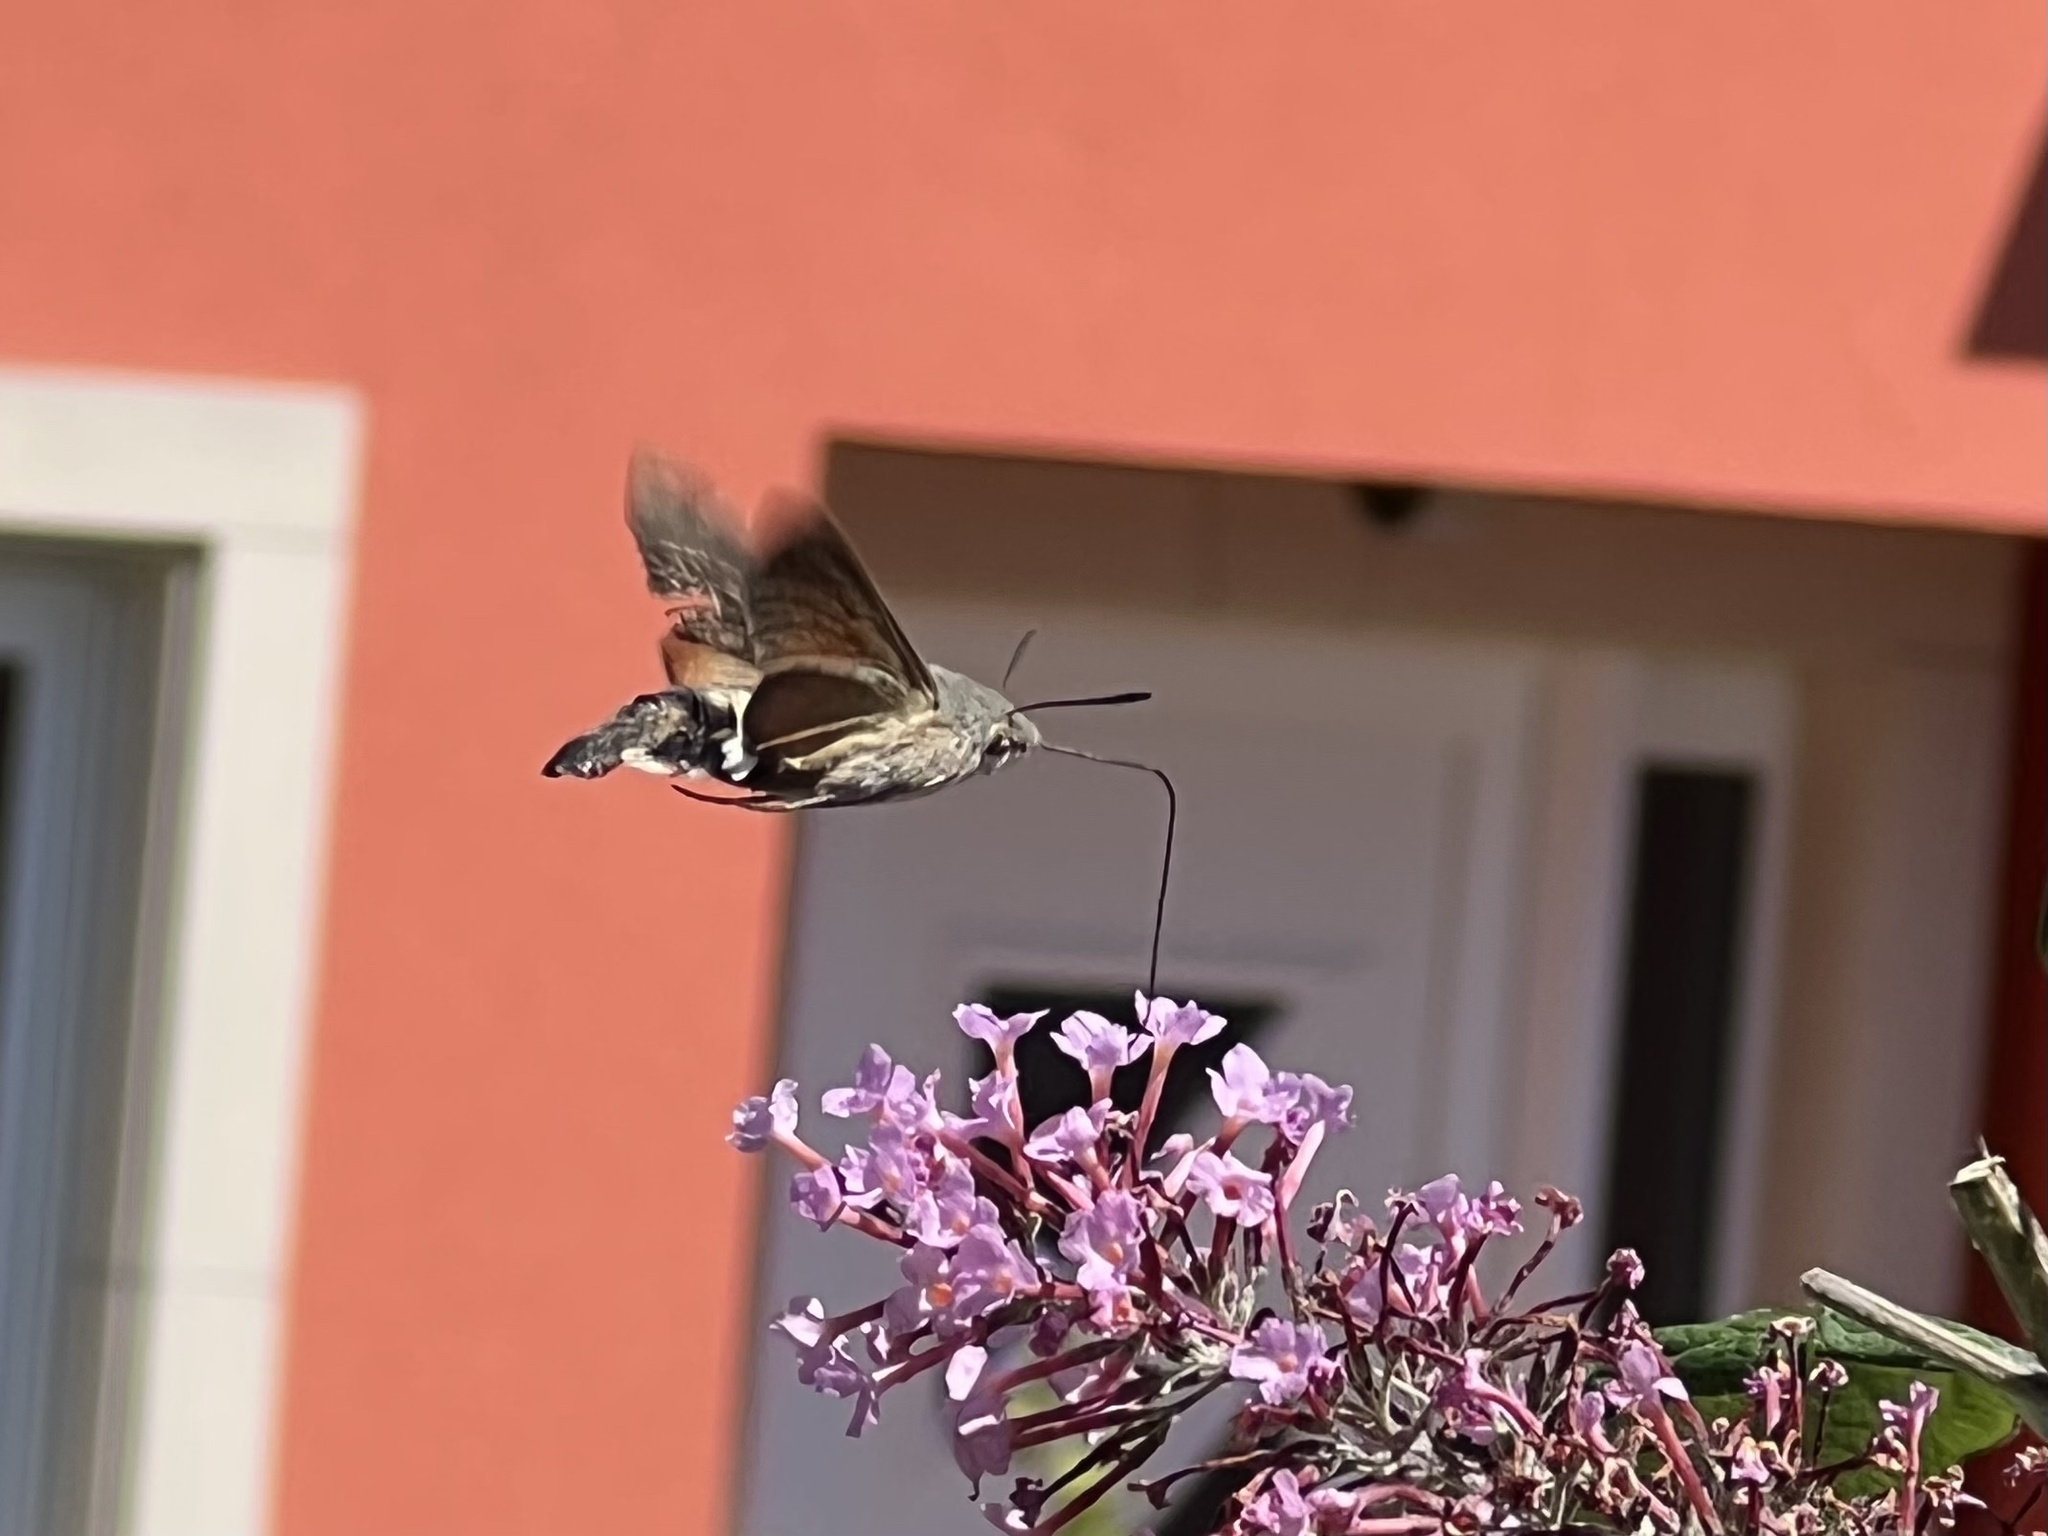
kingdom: Animalia
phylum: Arthropoda
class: Insecta
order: Lepidoptera
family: Sphingidae
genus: Macroglossum
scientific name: Macroglossum stellatarum
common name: Humming-bird hawk-moth
